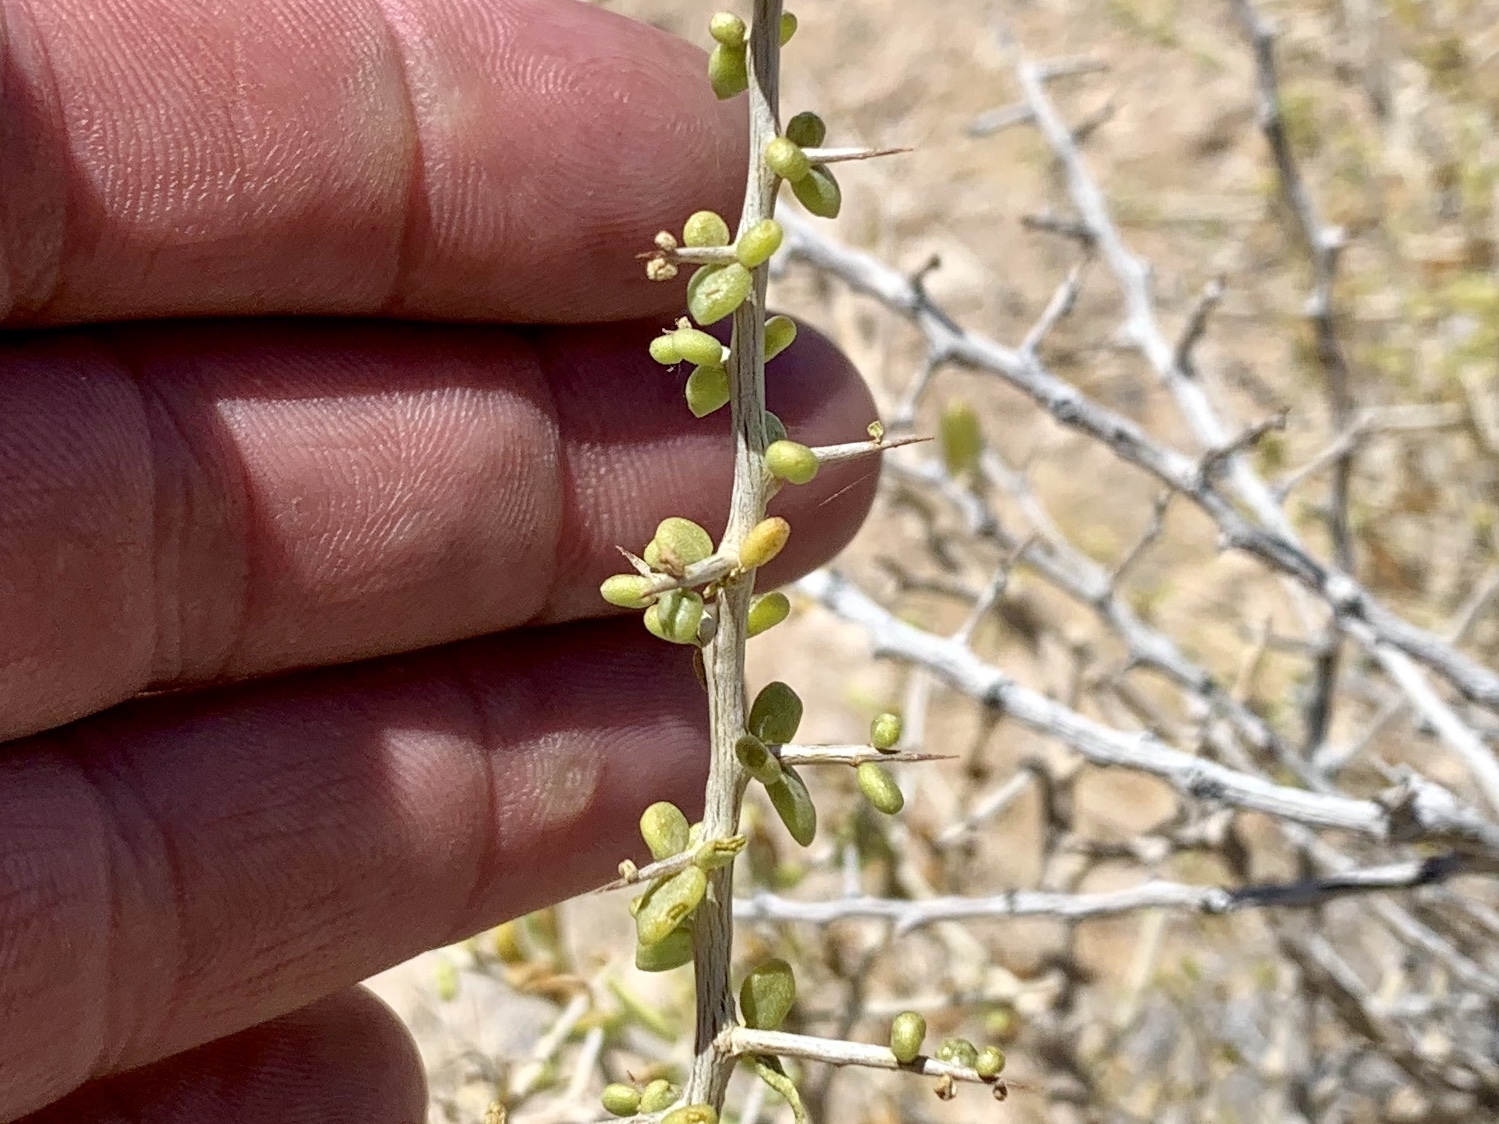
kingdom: Plantae
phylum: Tracheophyta
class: Magnoliopsida
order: Solanales
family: Solanaceae
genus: Lycium
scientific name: Lycium andersonii
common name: Water-jacket
